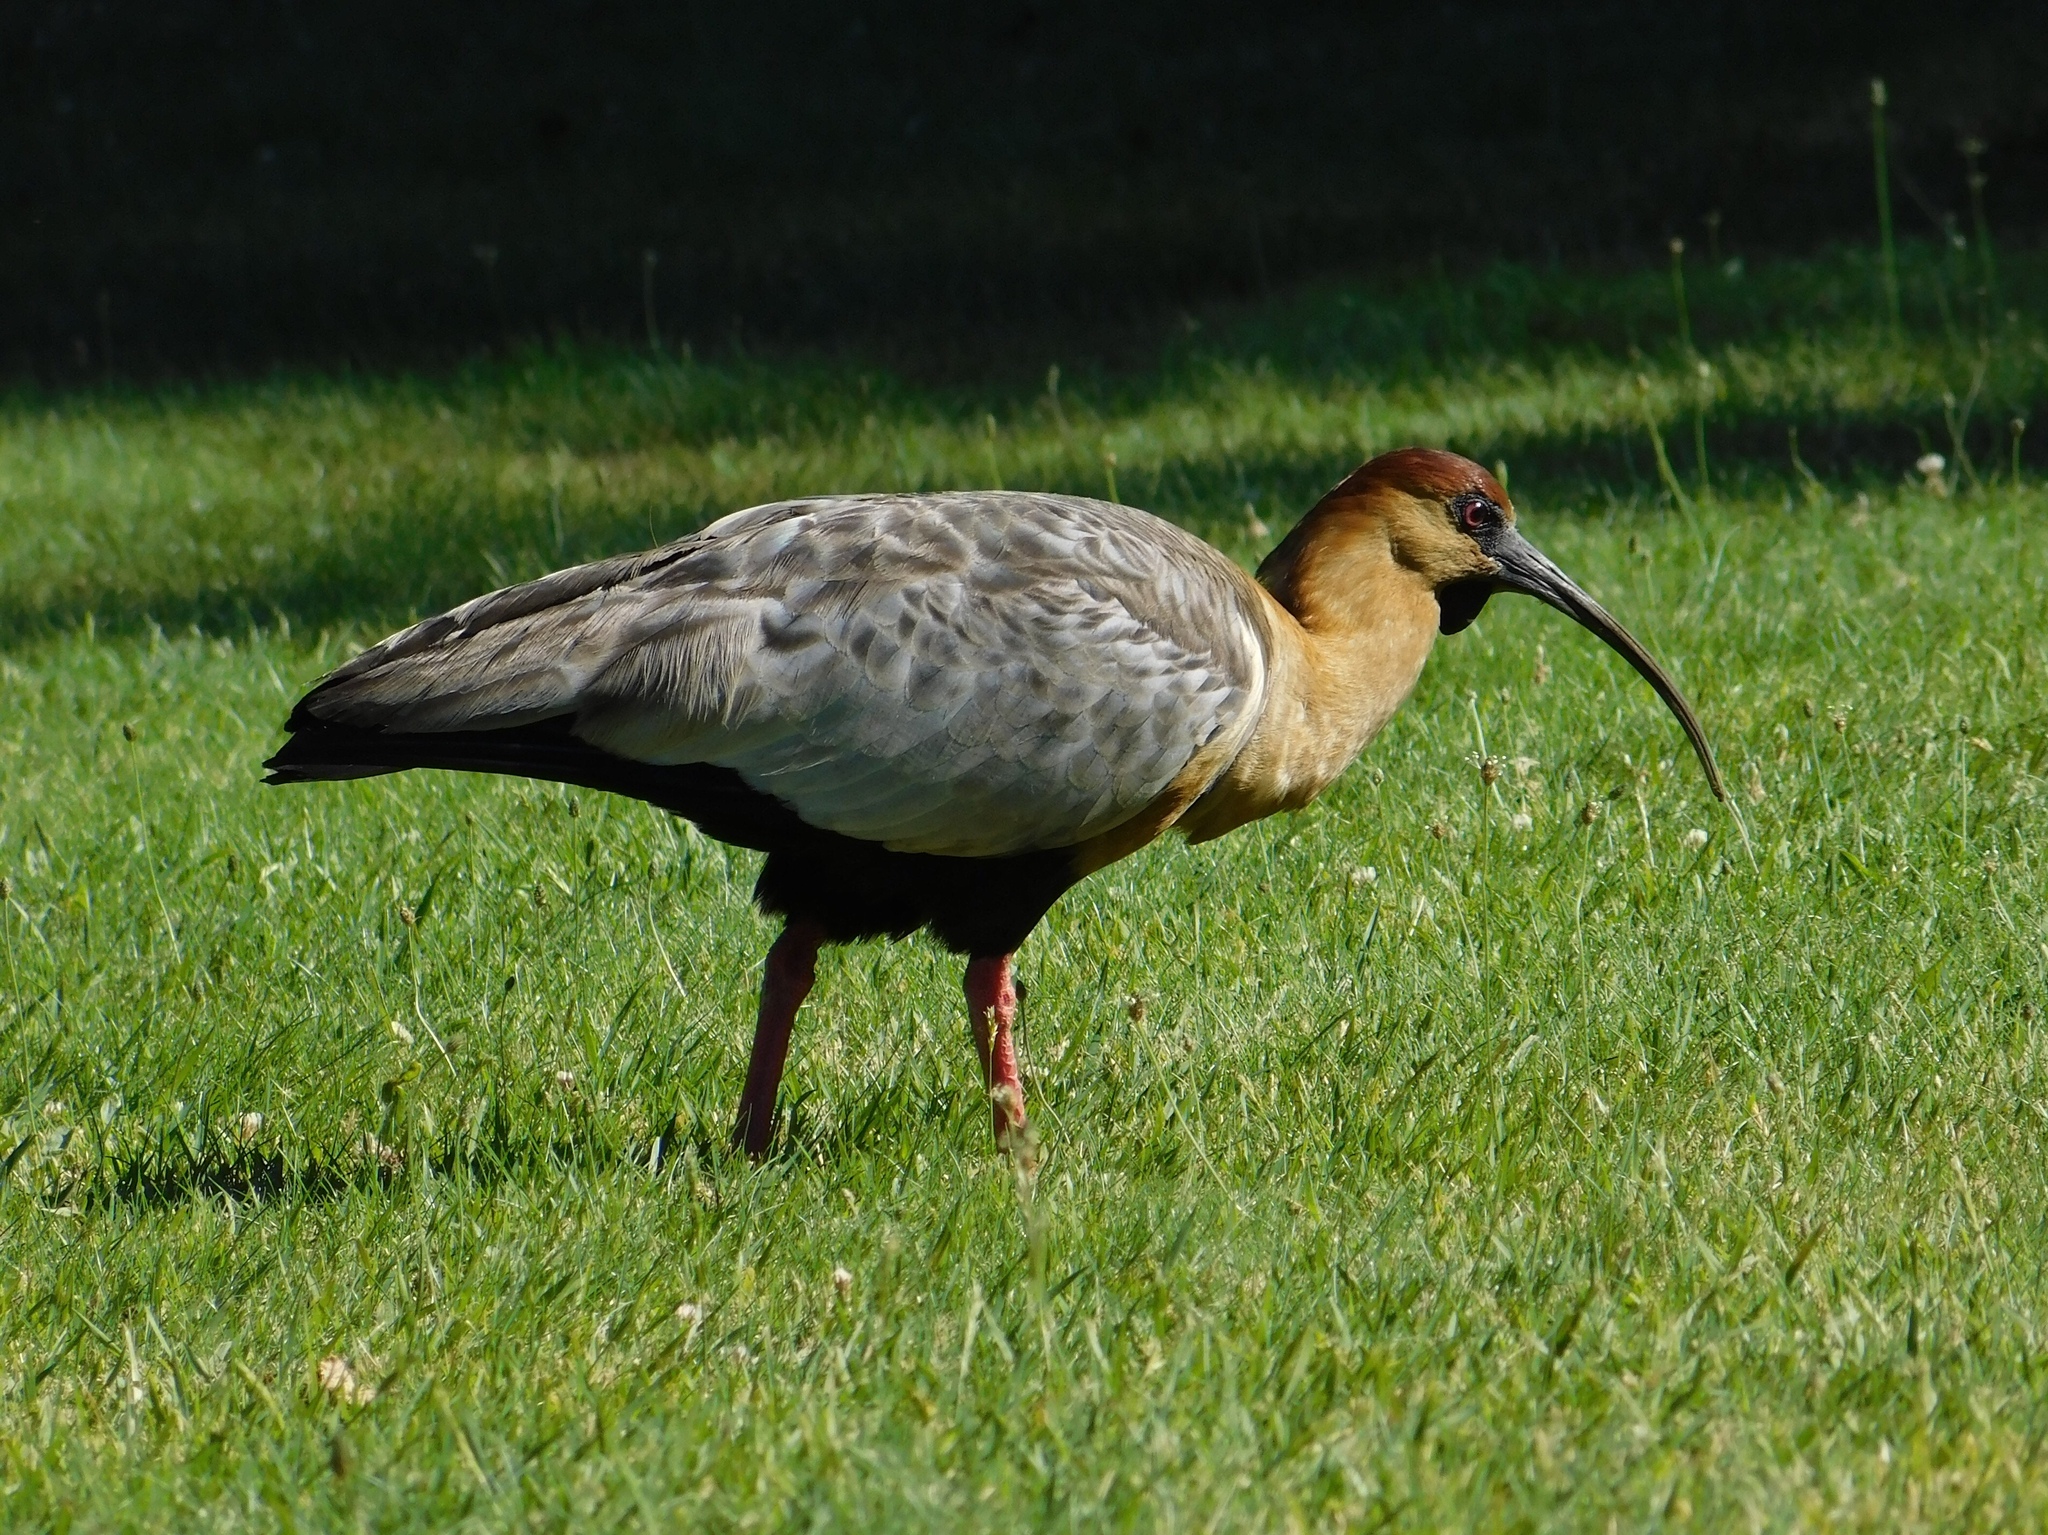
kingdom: Animalia
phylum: Chordata
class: Aves
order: Pelecaniformes
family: Threskiornithidae
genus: Theristicus
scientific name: Theristicus melanopis
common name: Black-faced ibis
